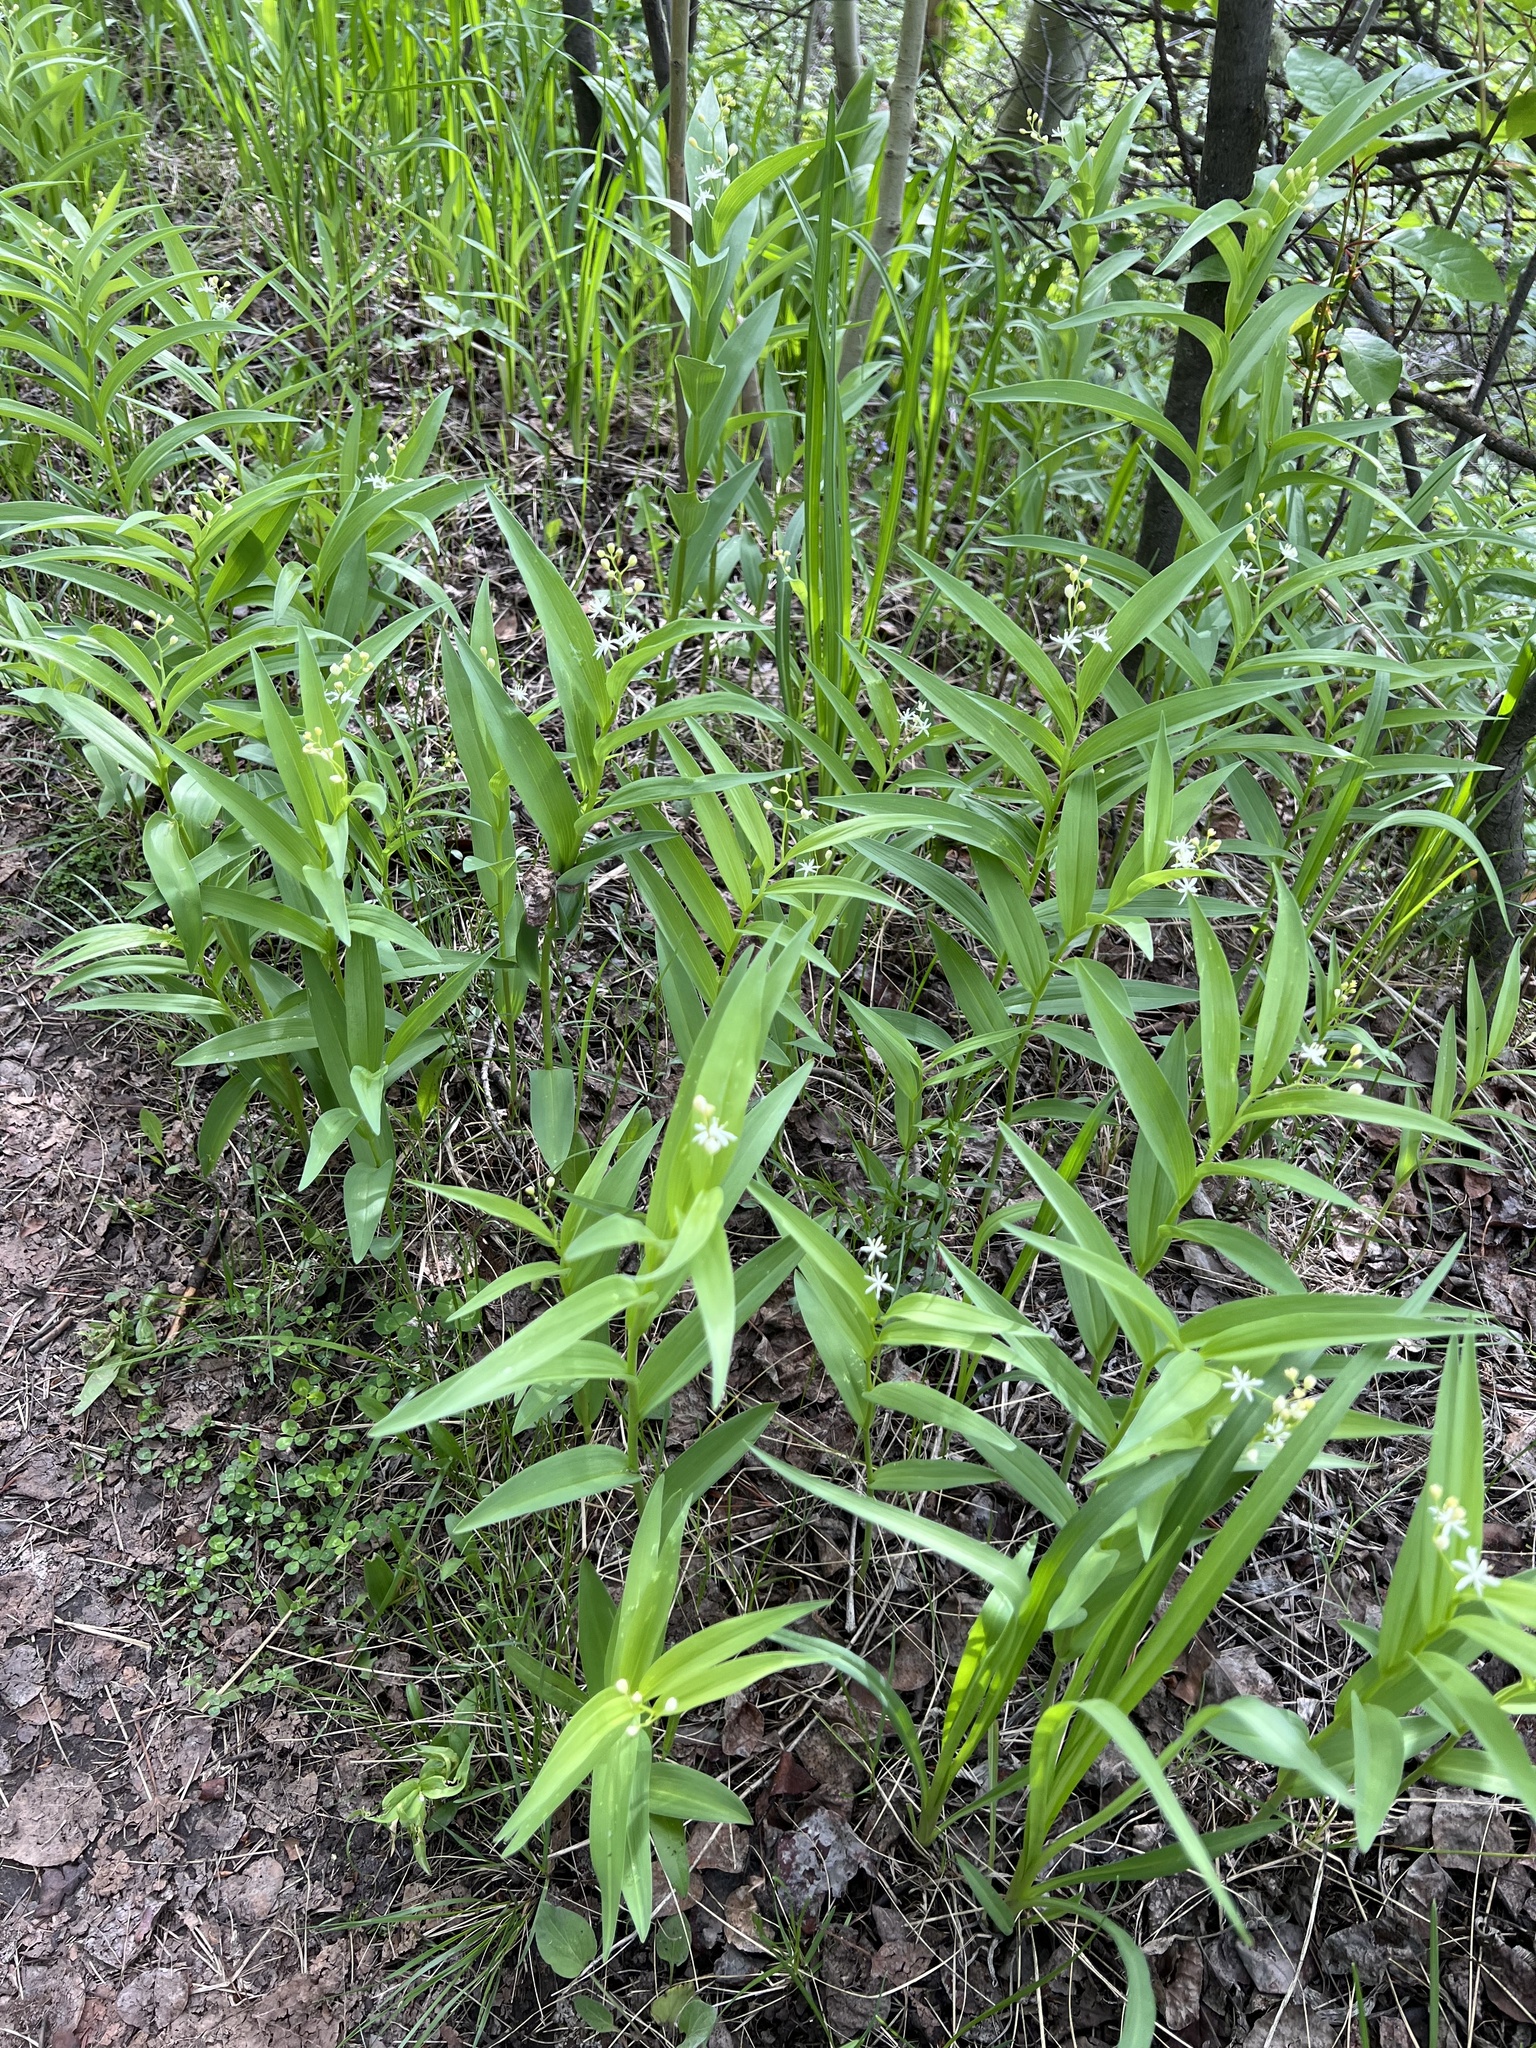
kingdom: Plantae
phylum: Tracheophyta
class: Liliopsida
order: Asparagales
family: Asparagaceae
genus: Maianthemum
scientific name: Maianthemum stellatum
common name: Little false solomon's seal
